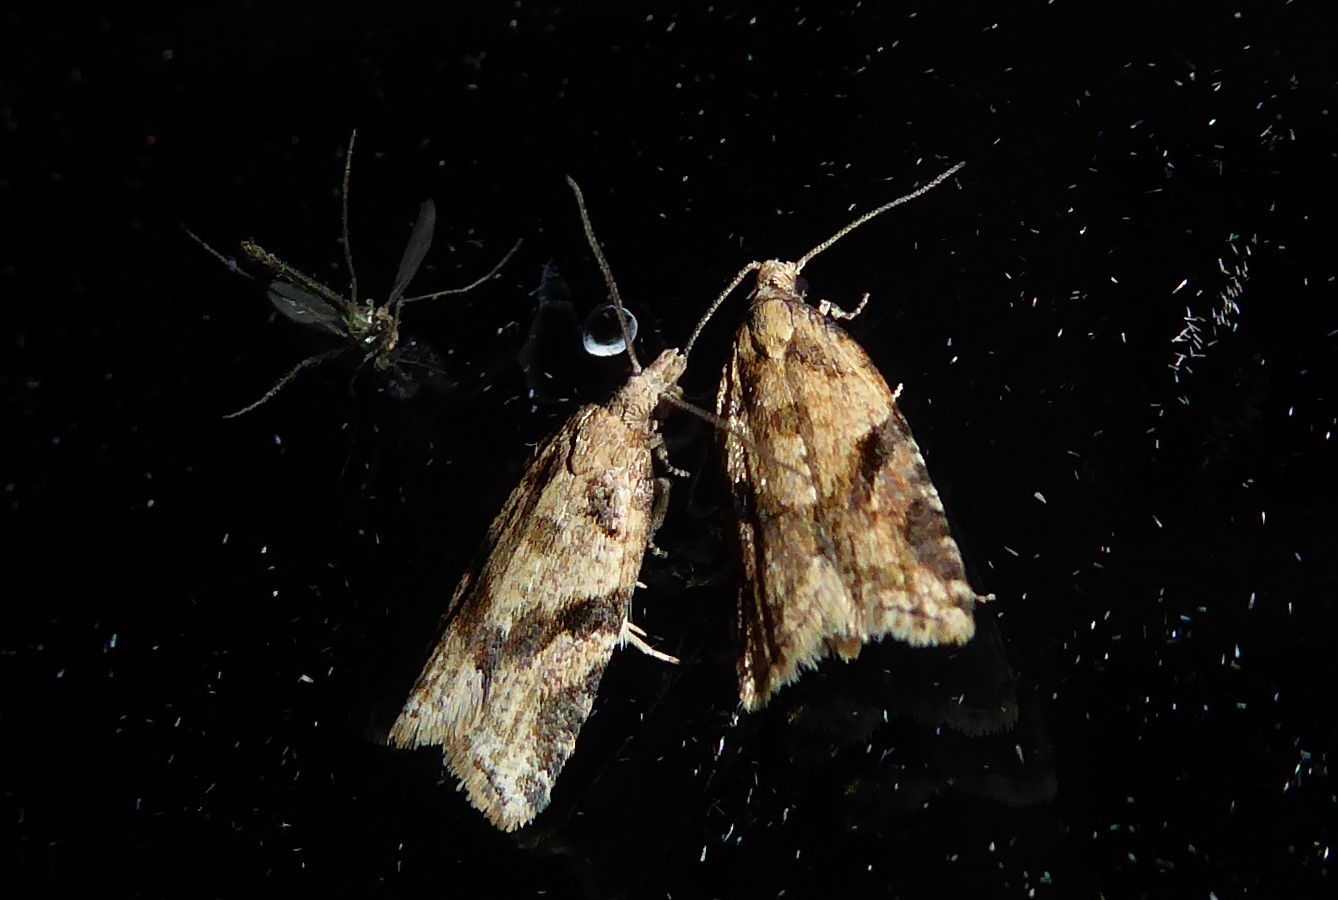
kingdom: Animalia
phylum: Arthropoda
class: Insecta
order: Lepidoptera
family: Tortricidae
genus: Capua
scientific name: Capua semiferana
